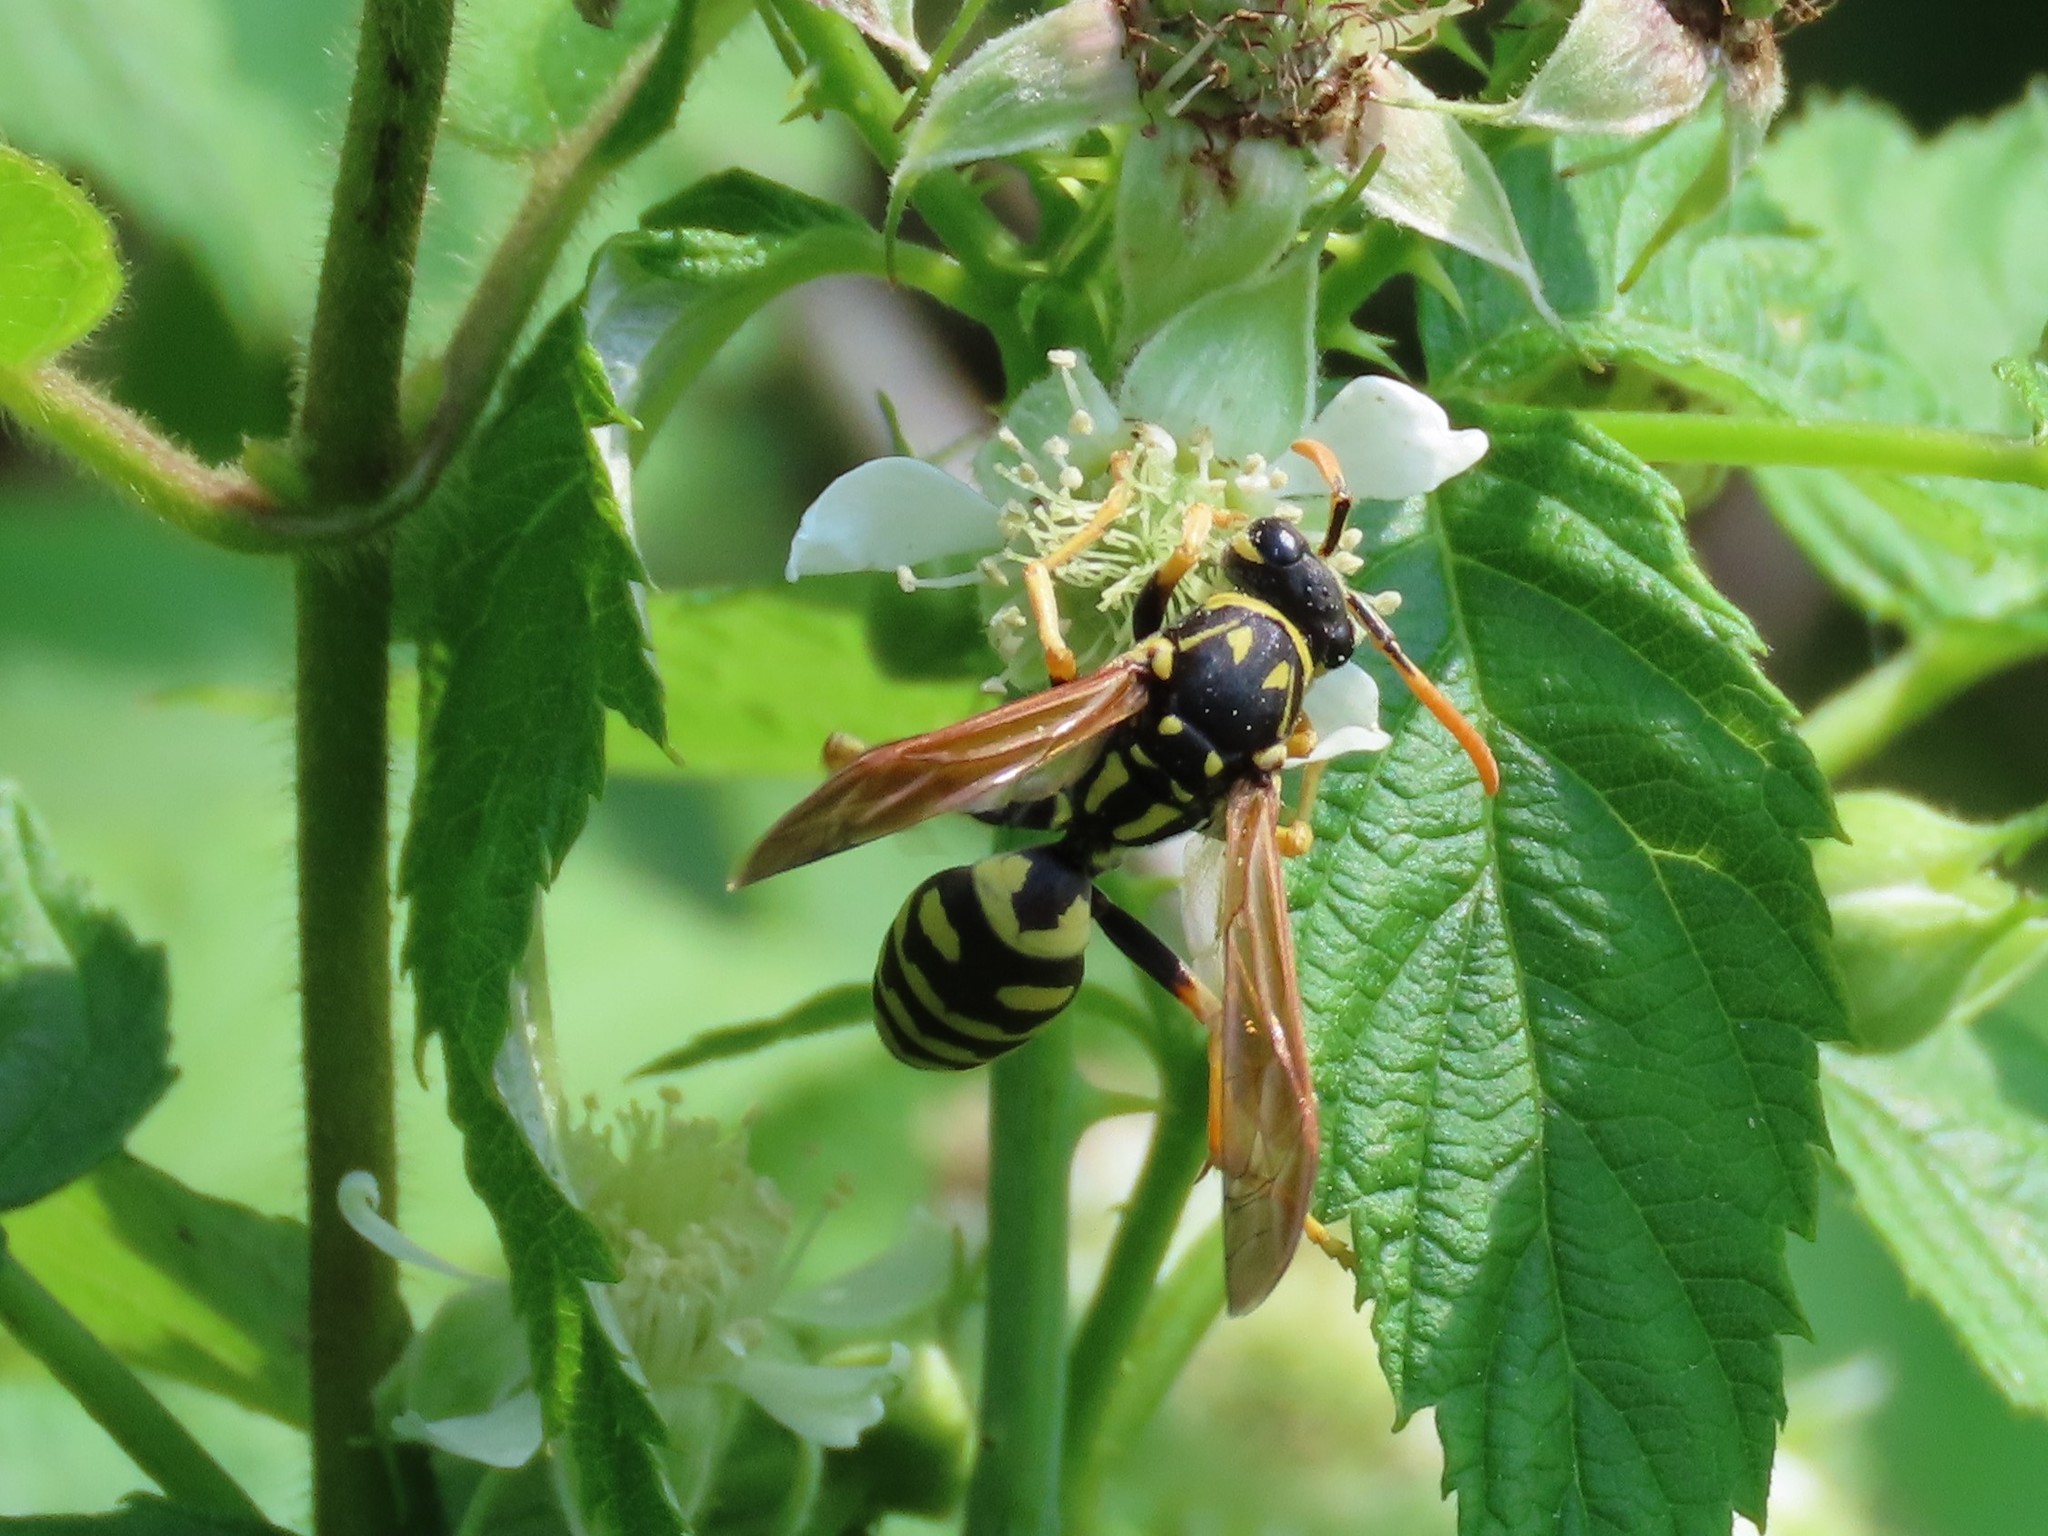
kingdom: Animalia
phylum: Arthropoda
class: Insecta
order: Hymenoptera
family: Eumenidae
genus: Polistes
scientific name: Polistes dominula
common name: Paper wasp
